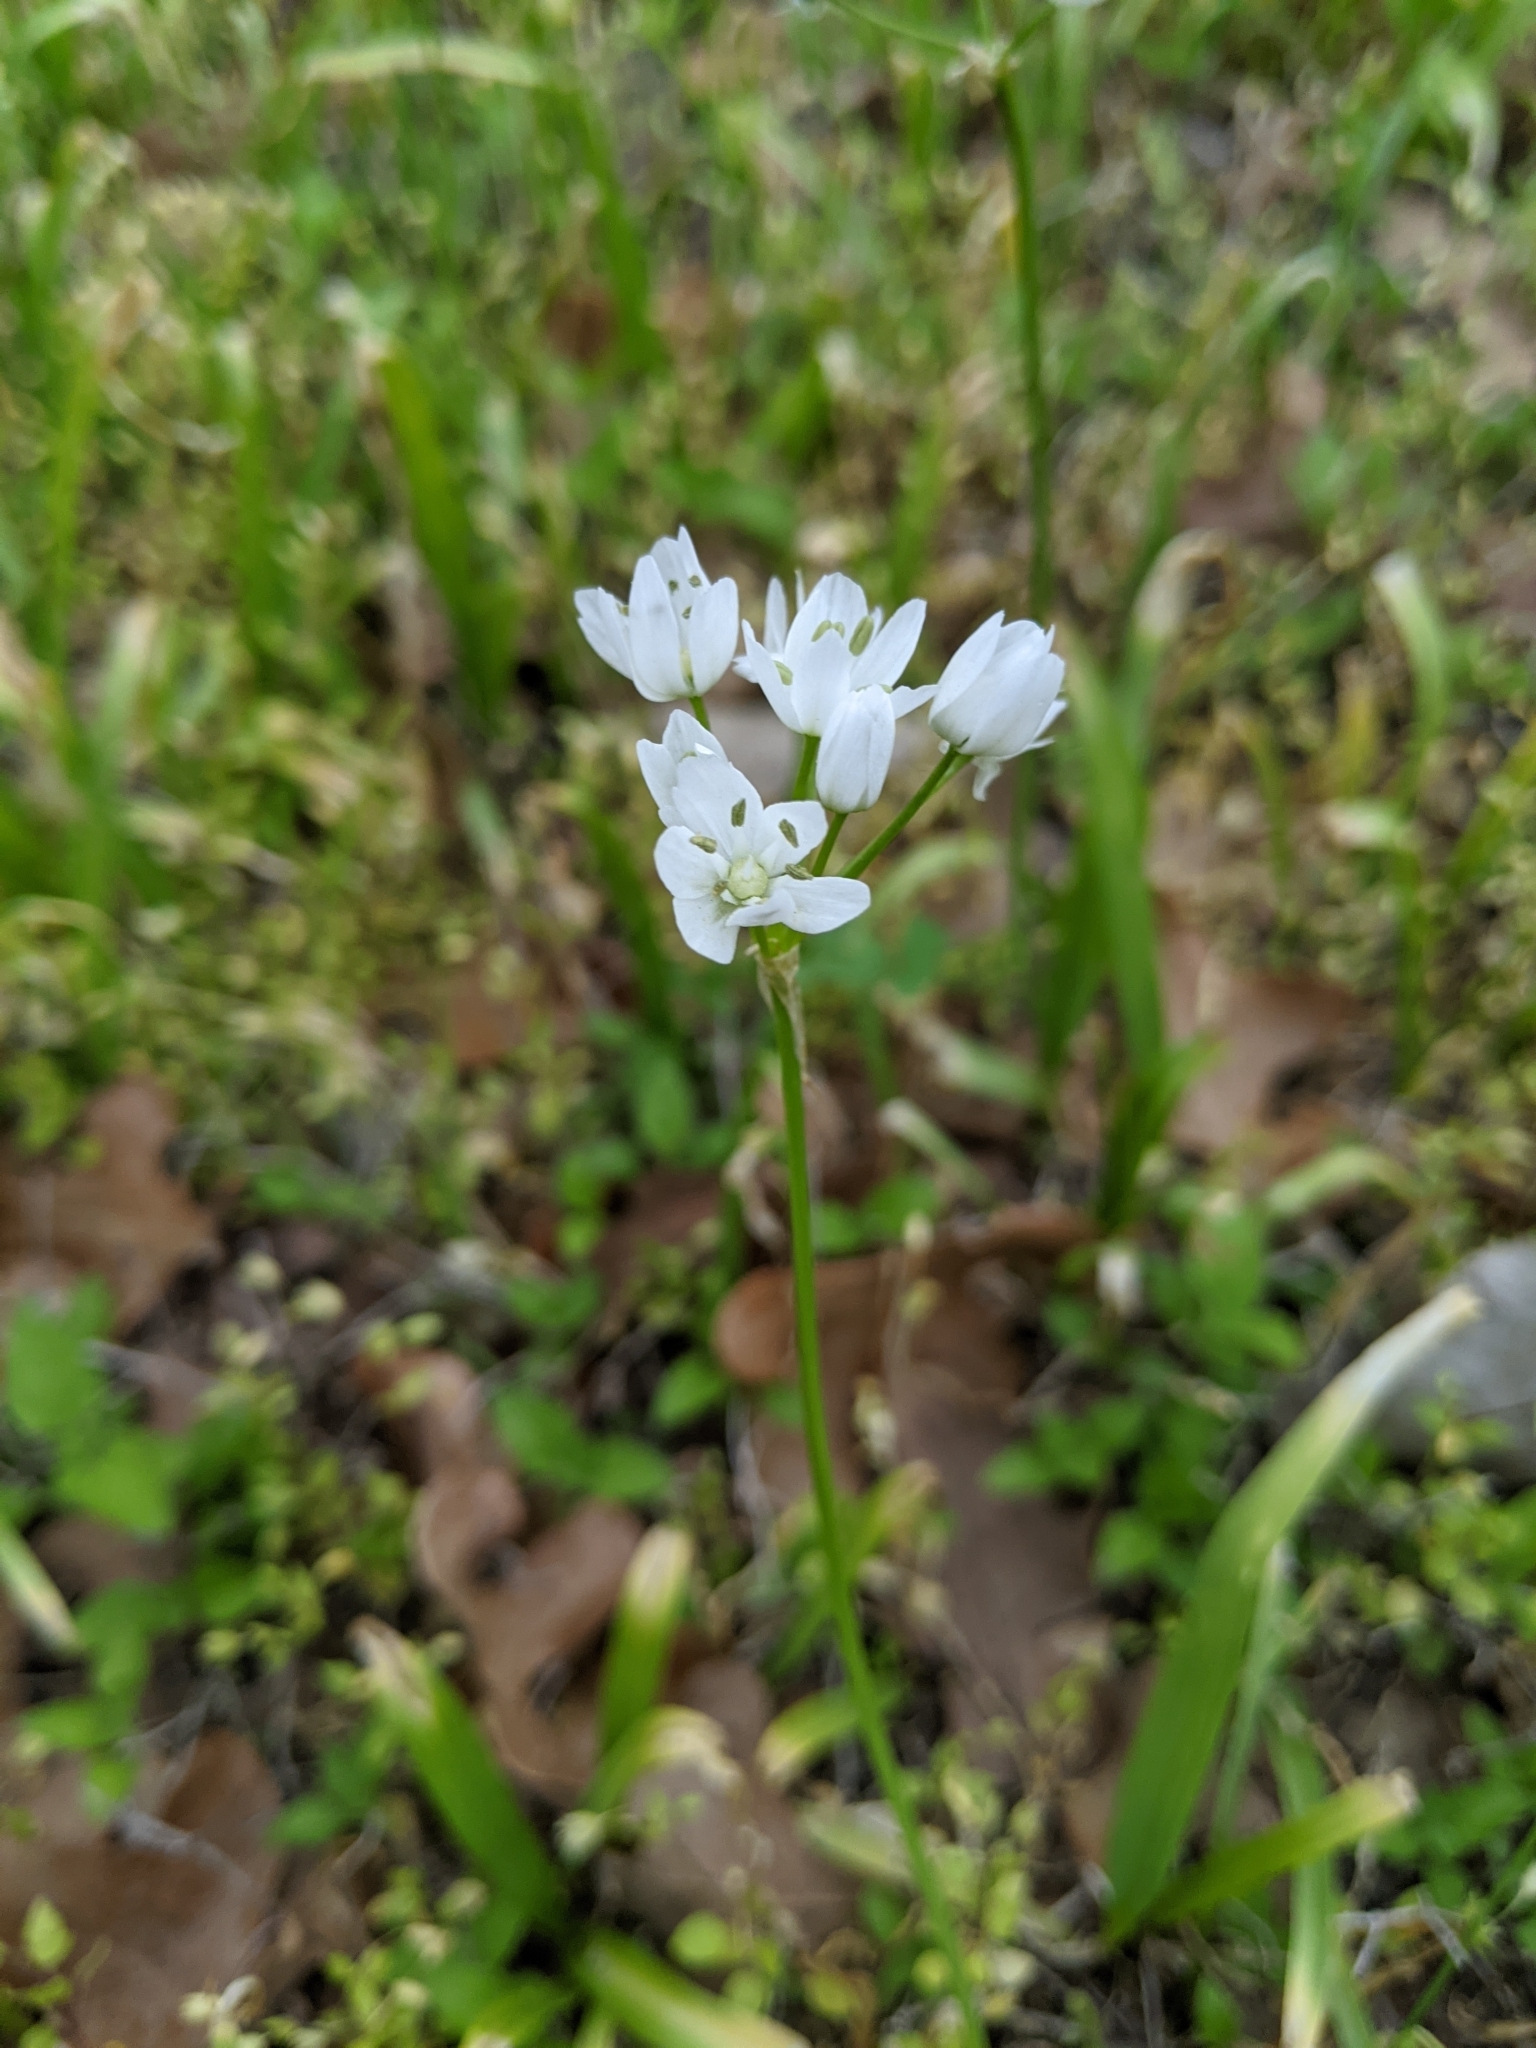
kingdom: Plantae
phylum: Tracheophyta
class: Liliopsida
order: Asparagales
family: Amaryllidaceae
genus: Allium
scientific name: Allium neapolitanum
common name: Neapolitan garlic
